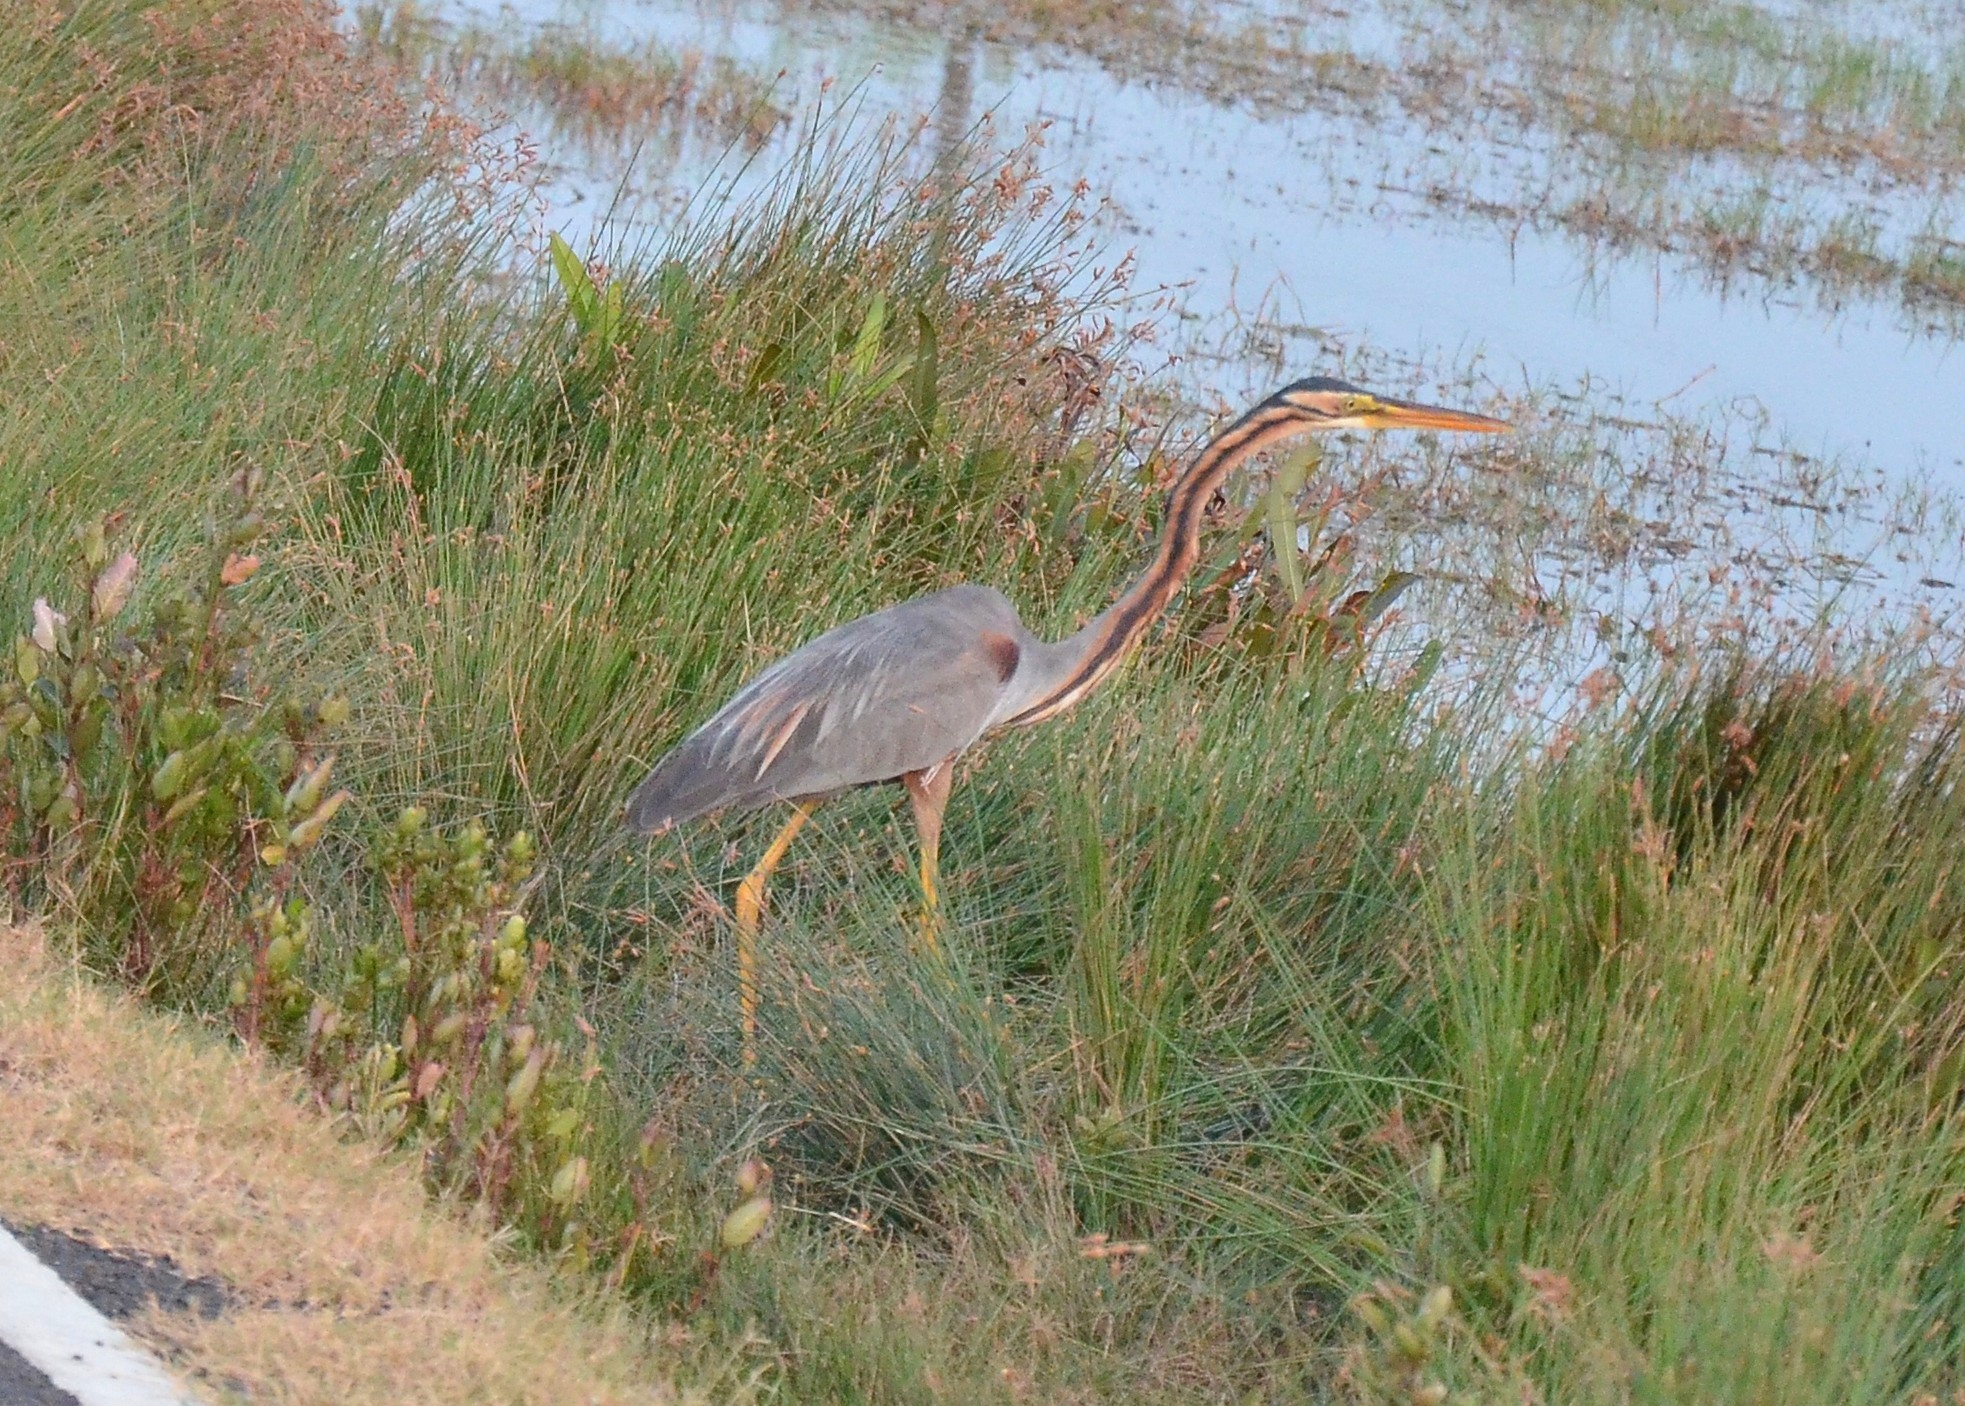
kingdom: Animalia
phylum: Chordata
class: Aves
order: Pelecaniformes
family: Ardeidae
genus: Ardea
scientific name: Ardea purpurea
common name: Purple heron
